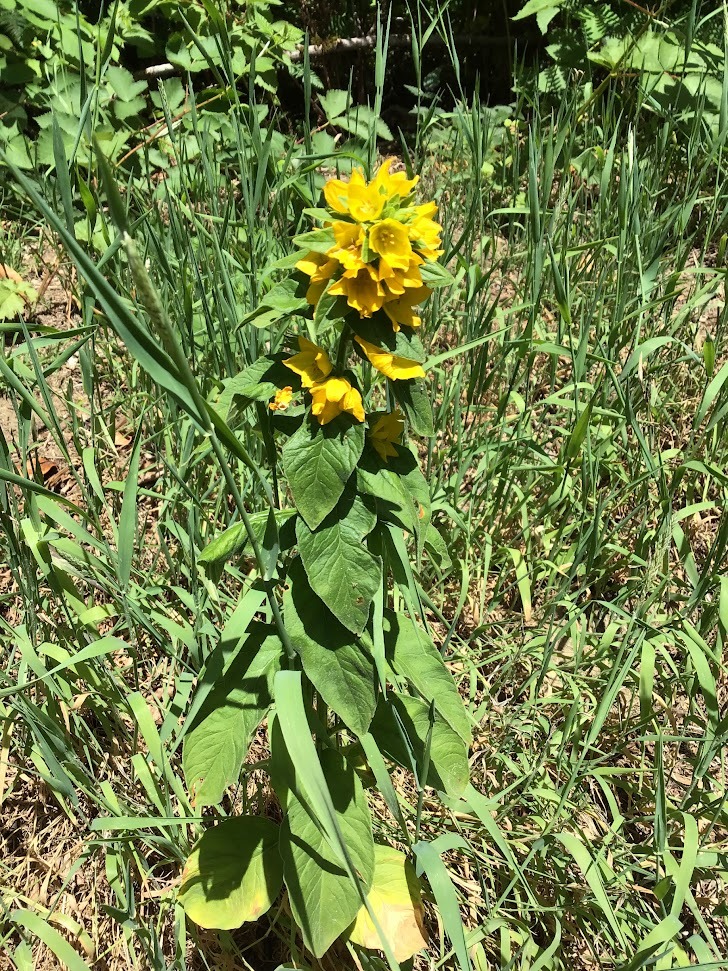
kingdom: Plantae
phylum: Tracheophyta
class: Magnoliopsida
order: Ericales
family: Primulaceae
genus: Lysimachia
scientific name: Lysimachia punctata
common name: Dotted loosestrife
